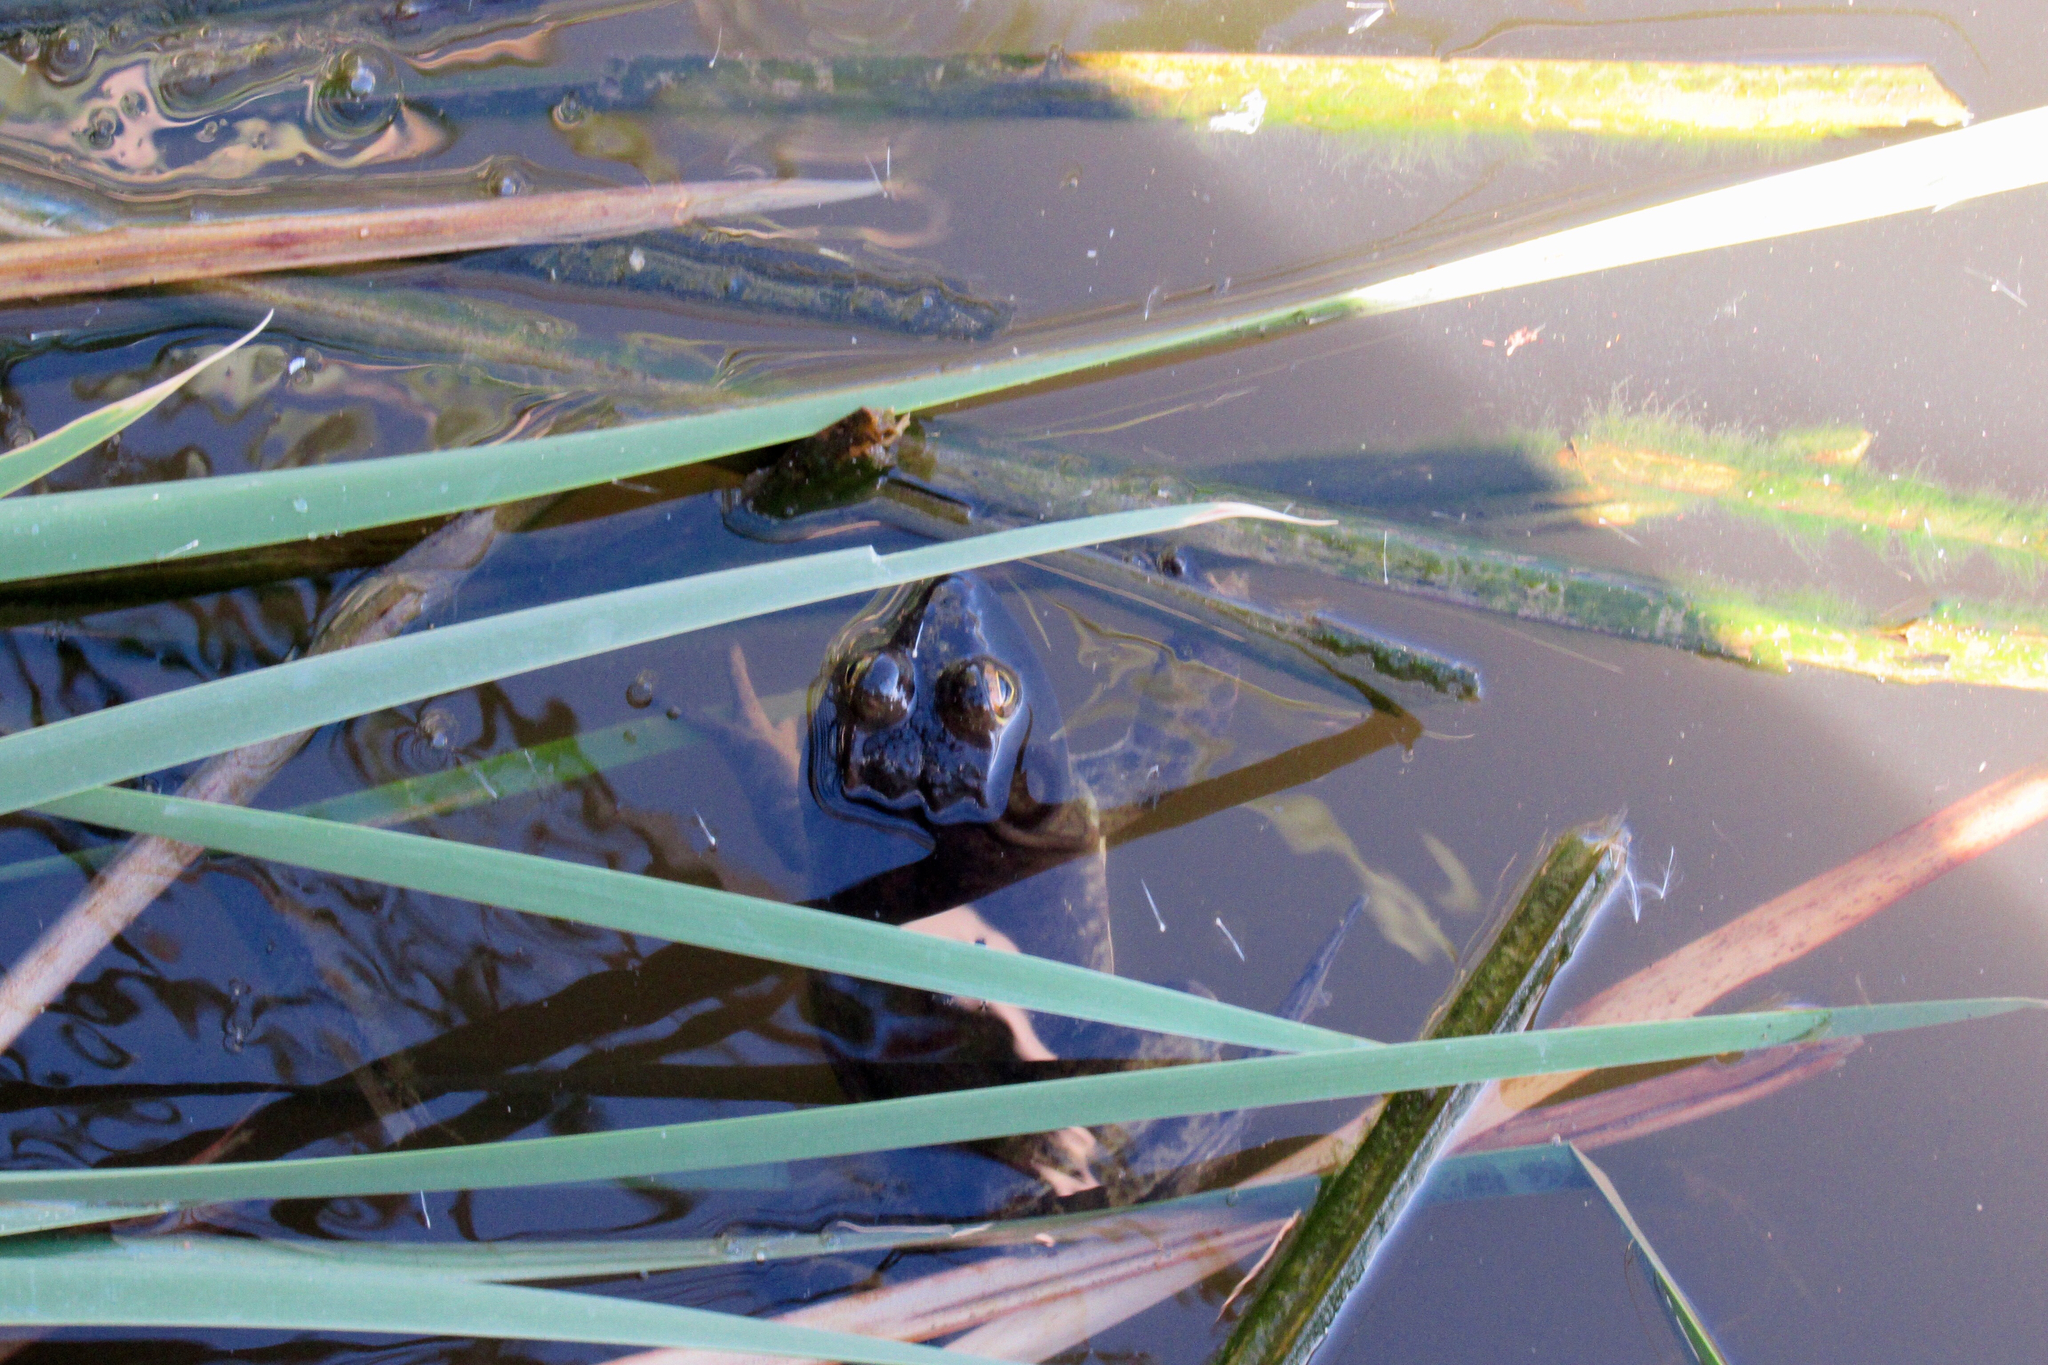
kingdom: Animalia
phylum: Chordata
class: Amphibia
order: Anura
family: Ranidae
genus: Lithobates
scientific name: Lithobates catesbeianus
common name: American bullfrog
